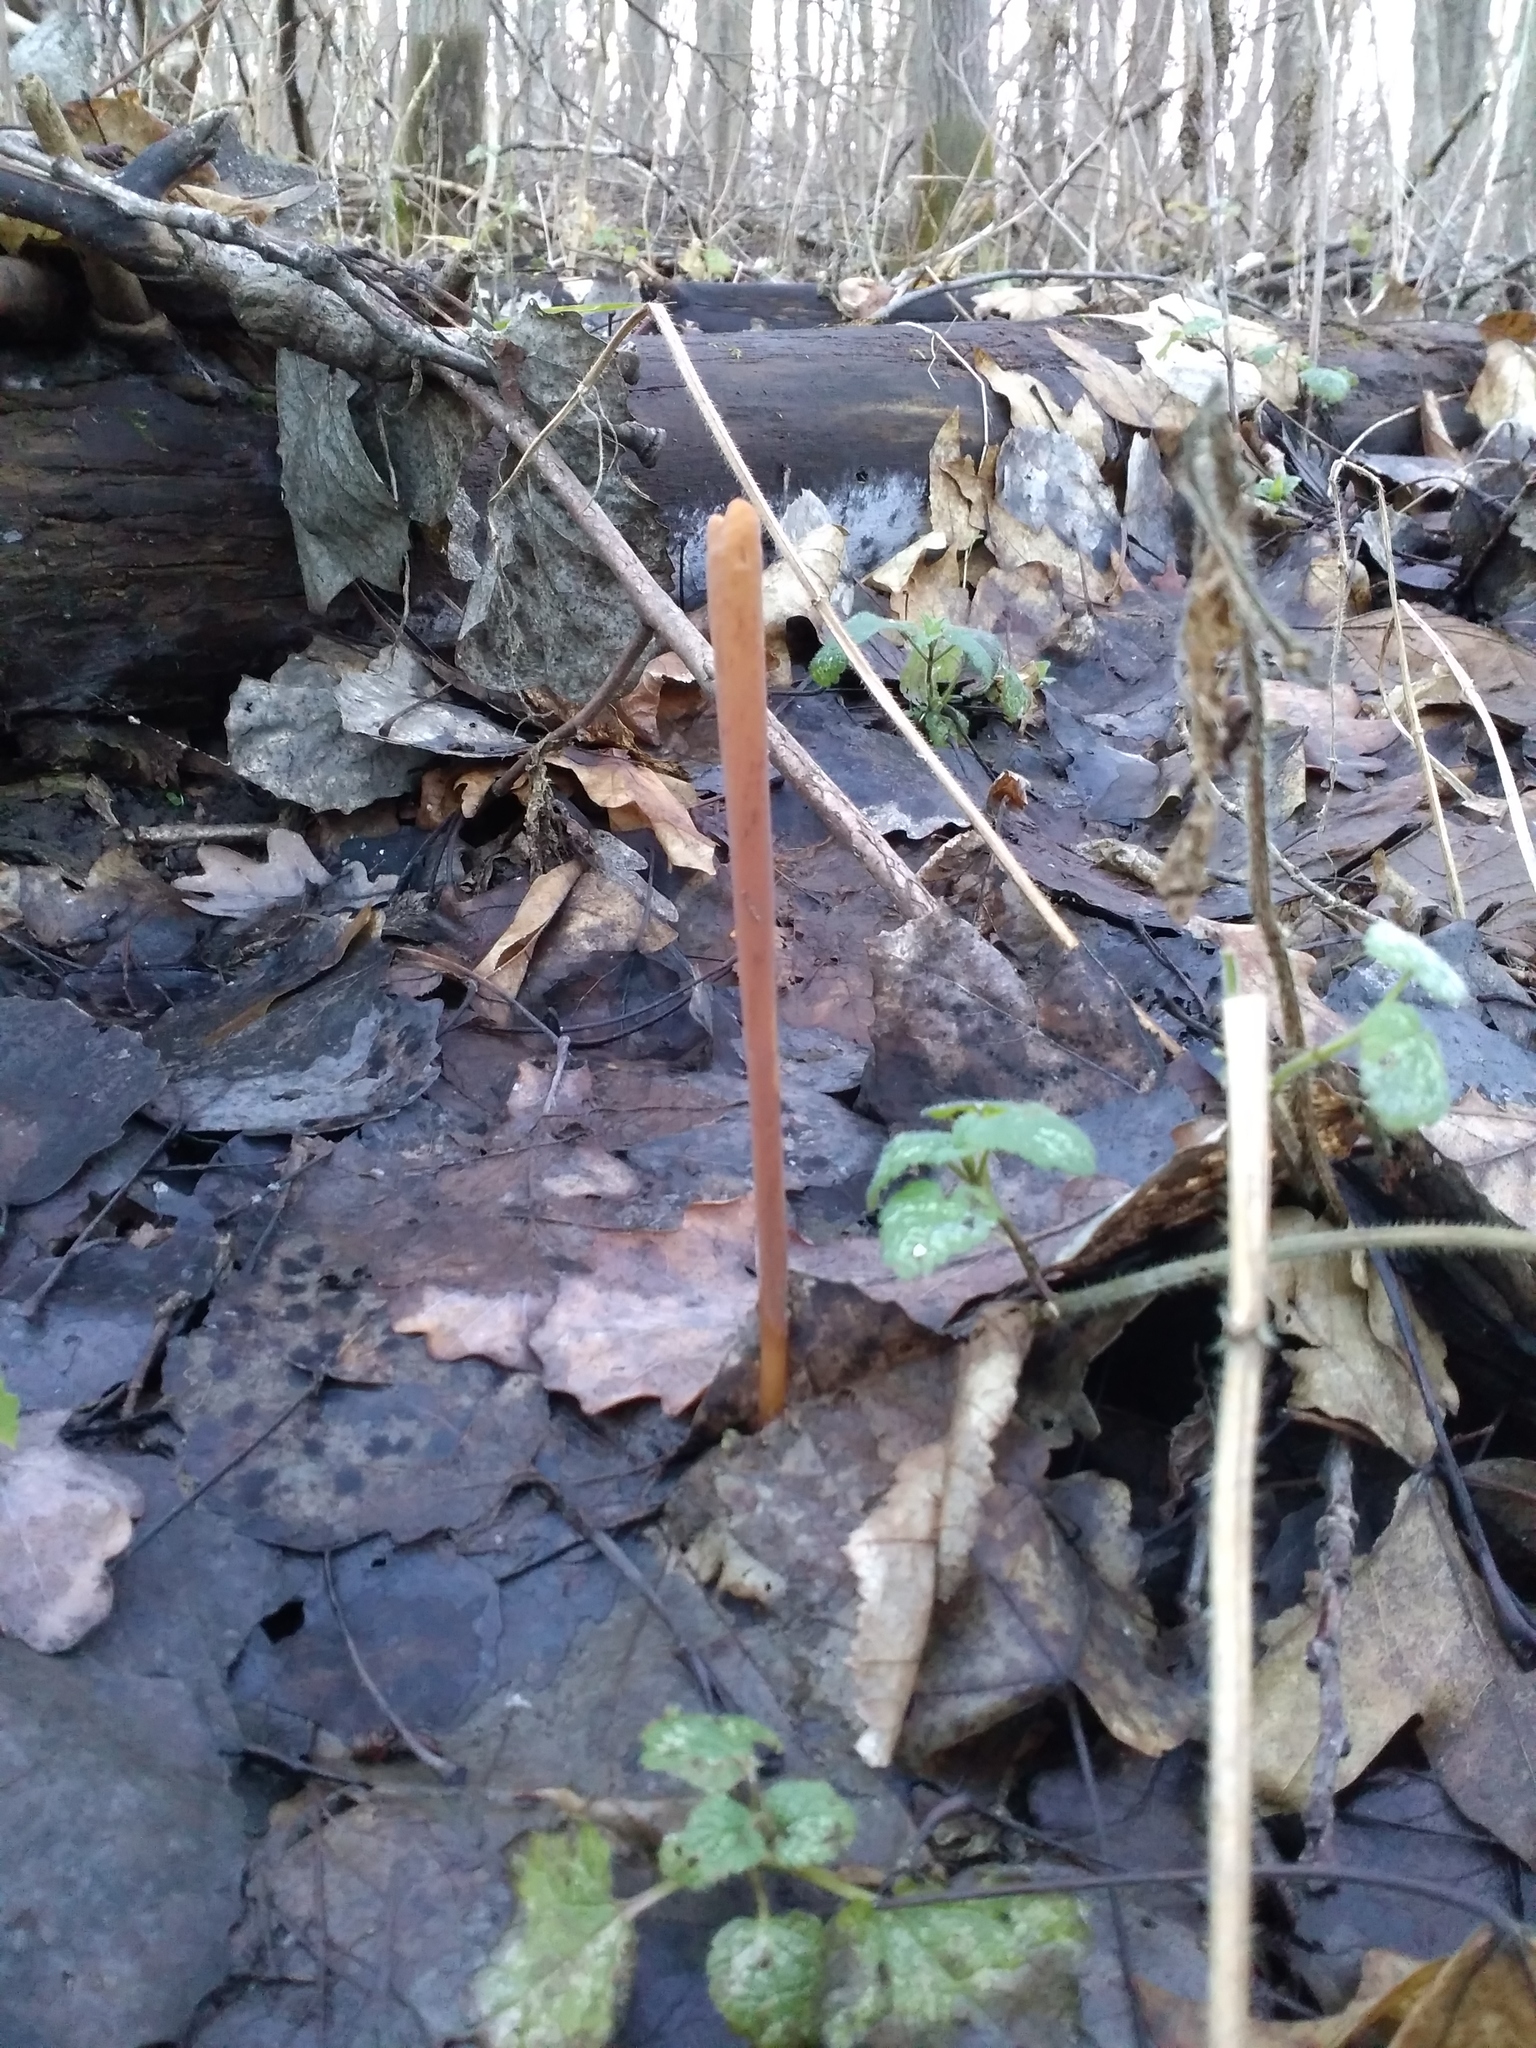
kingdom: Fungi
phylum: Basidiomycota
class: Agaricomycetes
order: Agaricales
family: Typhulaceae
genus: Typhula
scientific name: Typhula fistulosa
